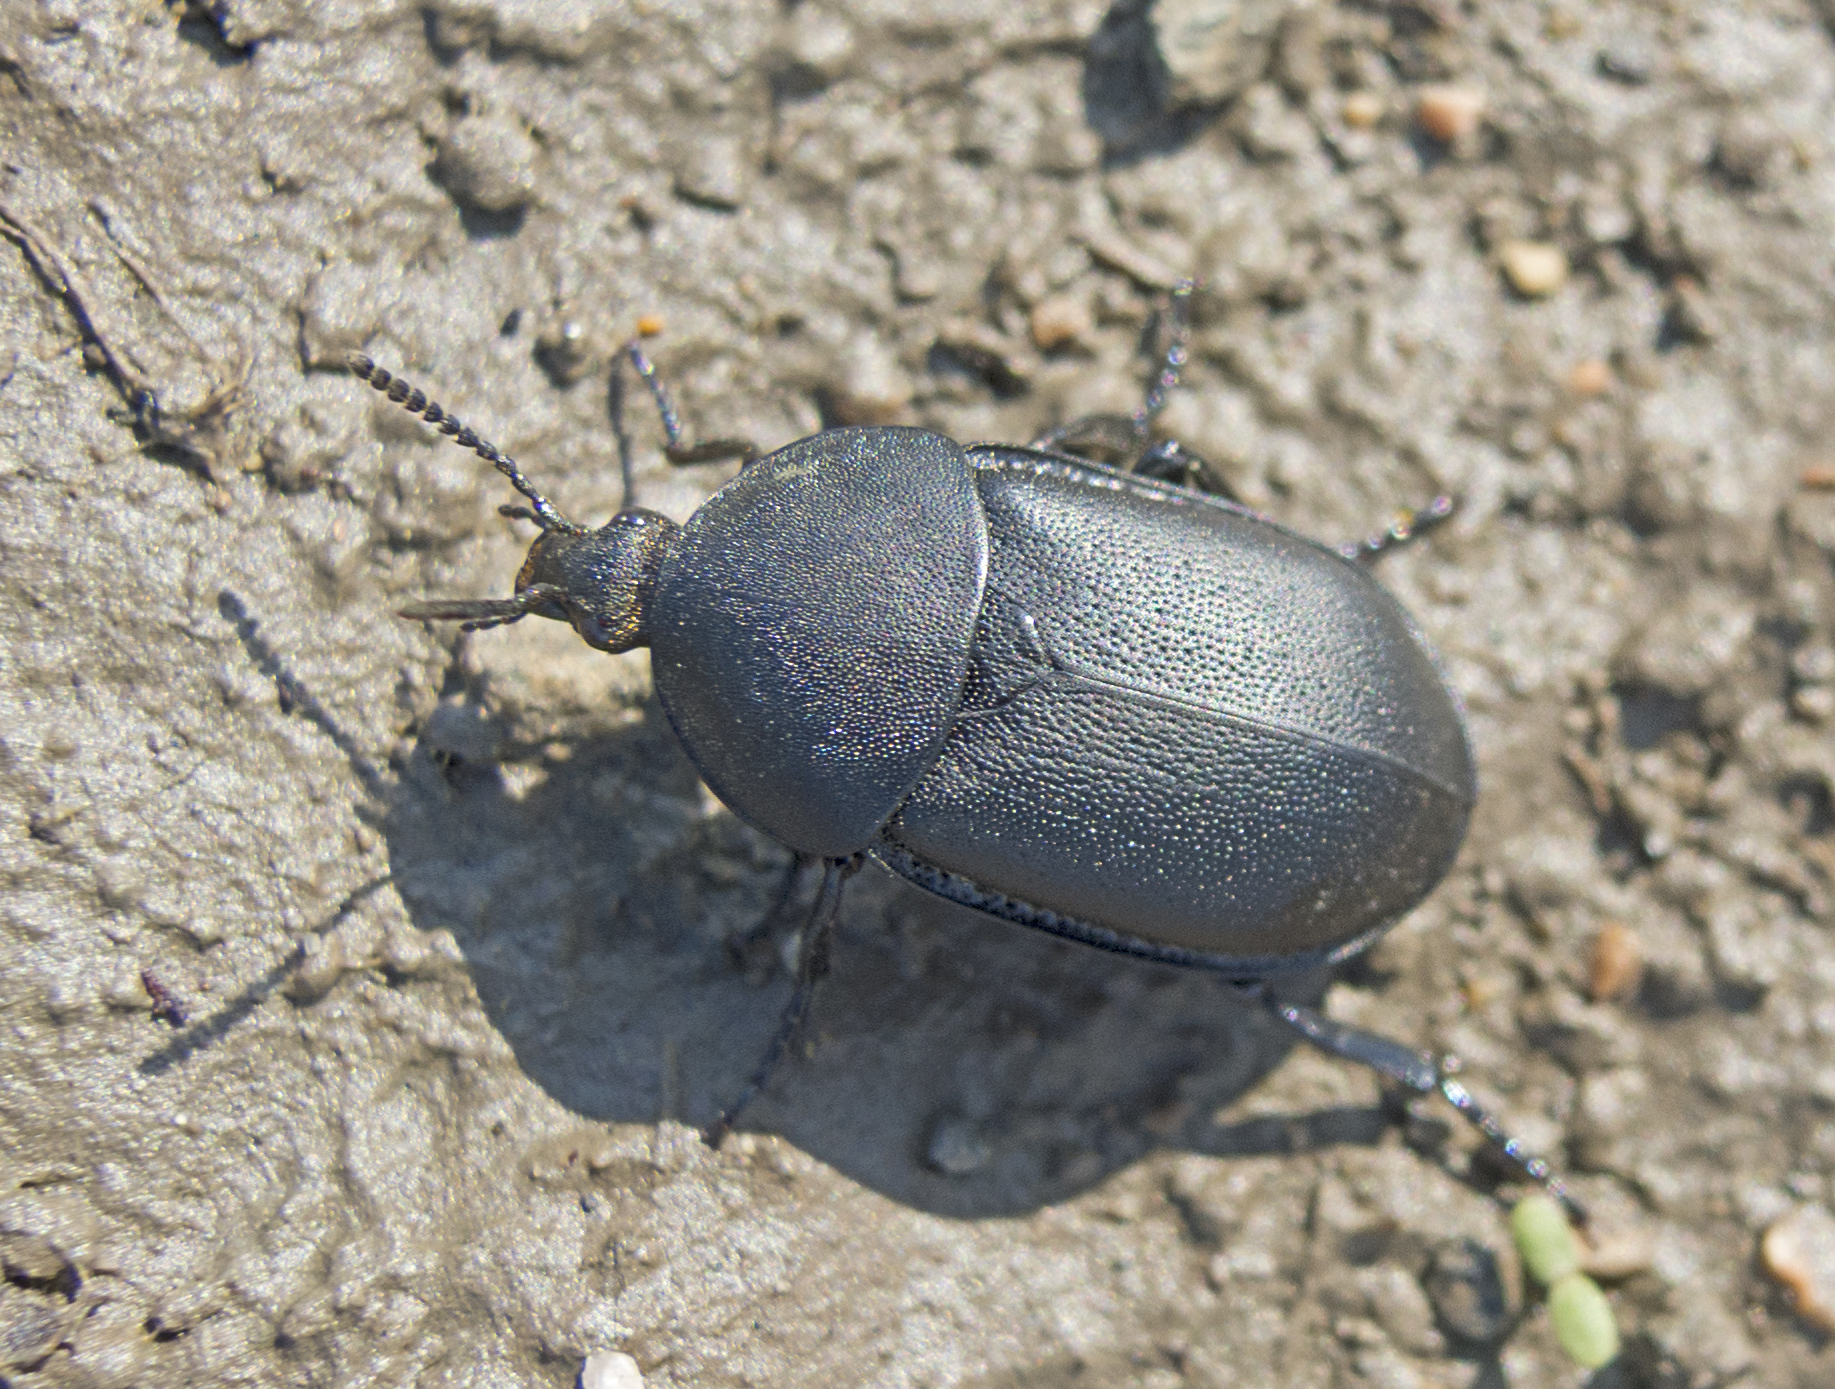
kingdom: Animalia
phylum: Arthropoda
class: Insecta
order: Coleoptera
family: Staphylinidae
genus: Silpha
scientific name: Silpha laevigata
